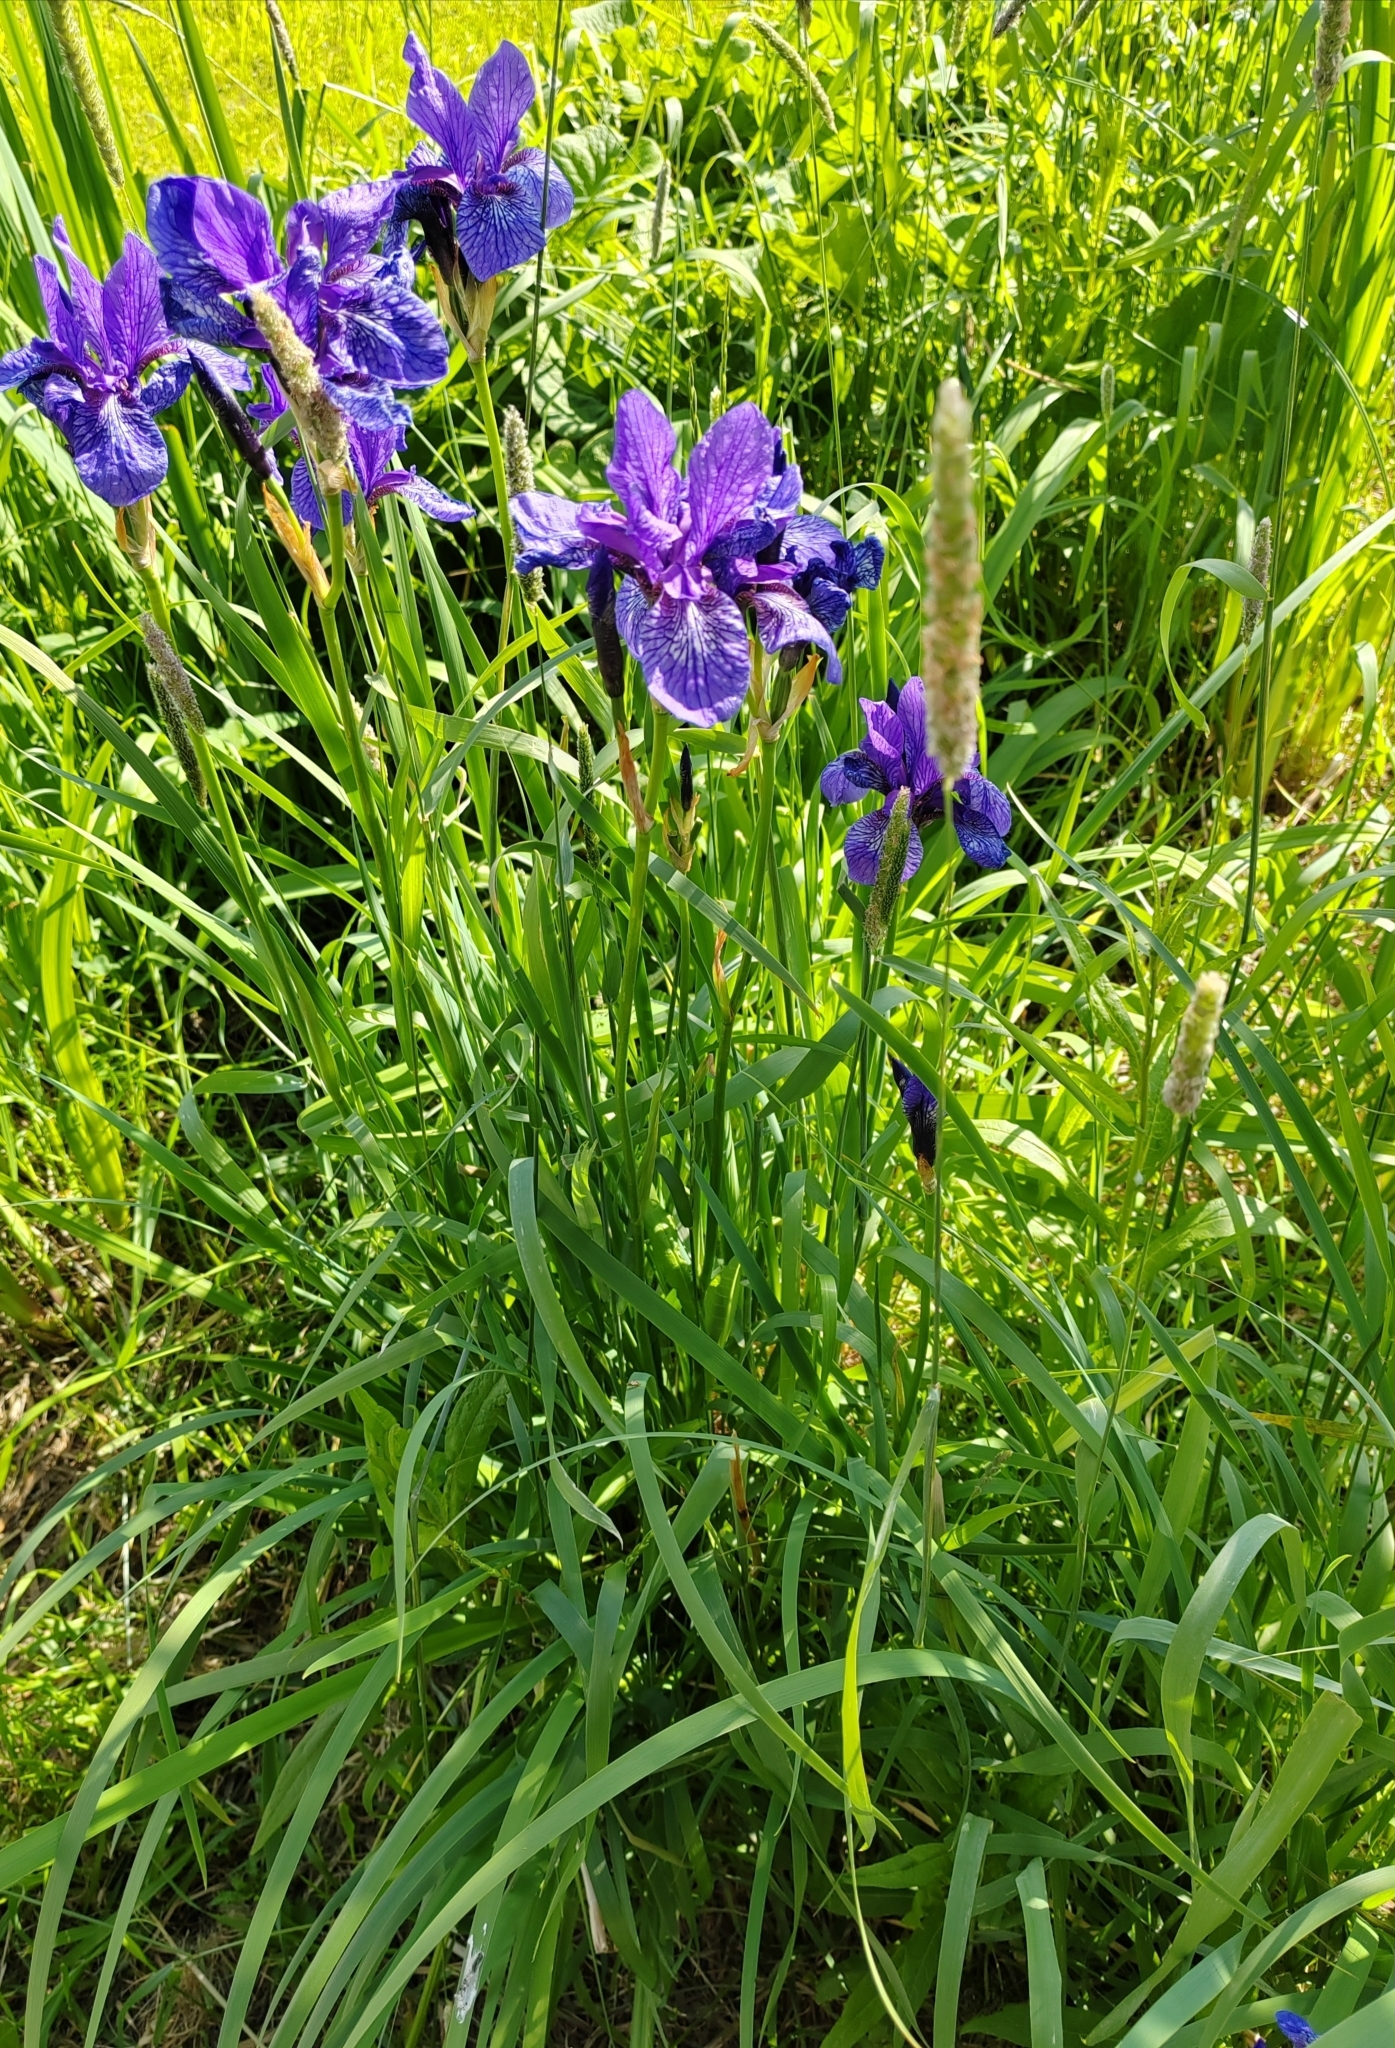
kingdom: Plantae
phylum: Tracheophyta
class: Liliopsida
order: Asparagales
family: Iridaceae
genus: Iris
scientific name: Iris sibirica
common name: Siberian iris
